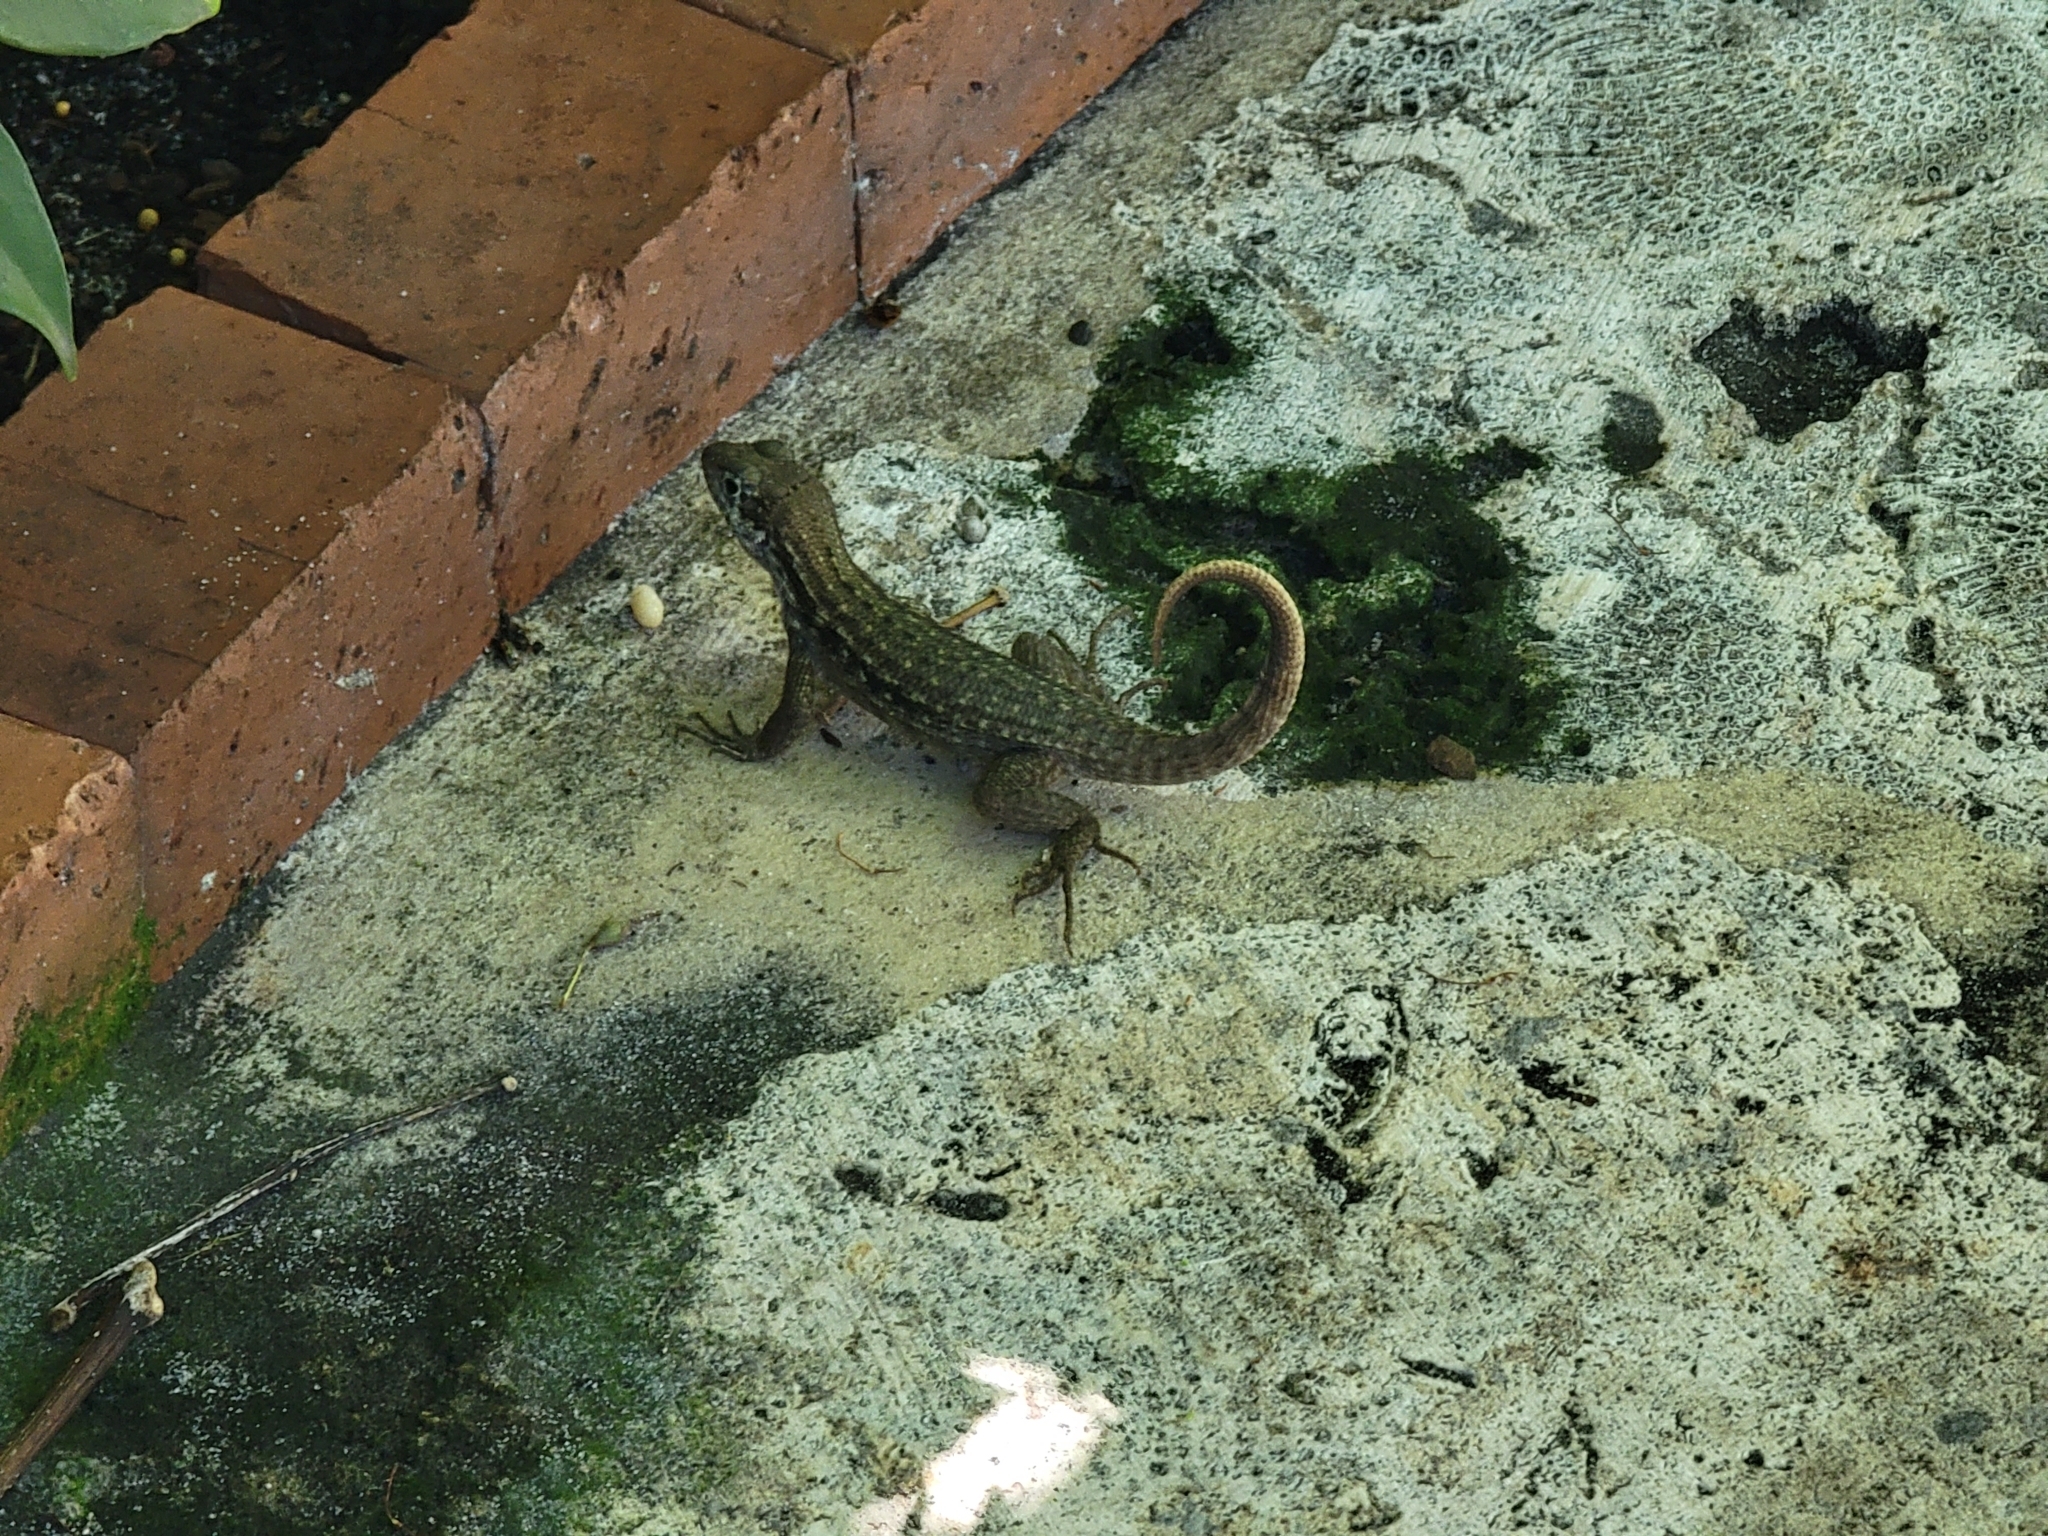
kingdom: Animalia
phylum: Chordata
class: Squamata
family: Leiocephalidae
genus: Leiocephalus
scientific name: Leiocephalus carinatus
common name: Northern curly-tailed lizard
